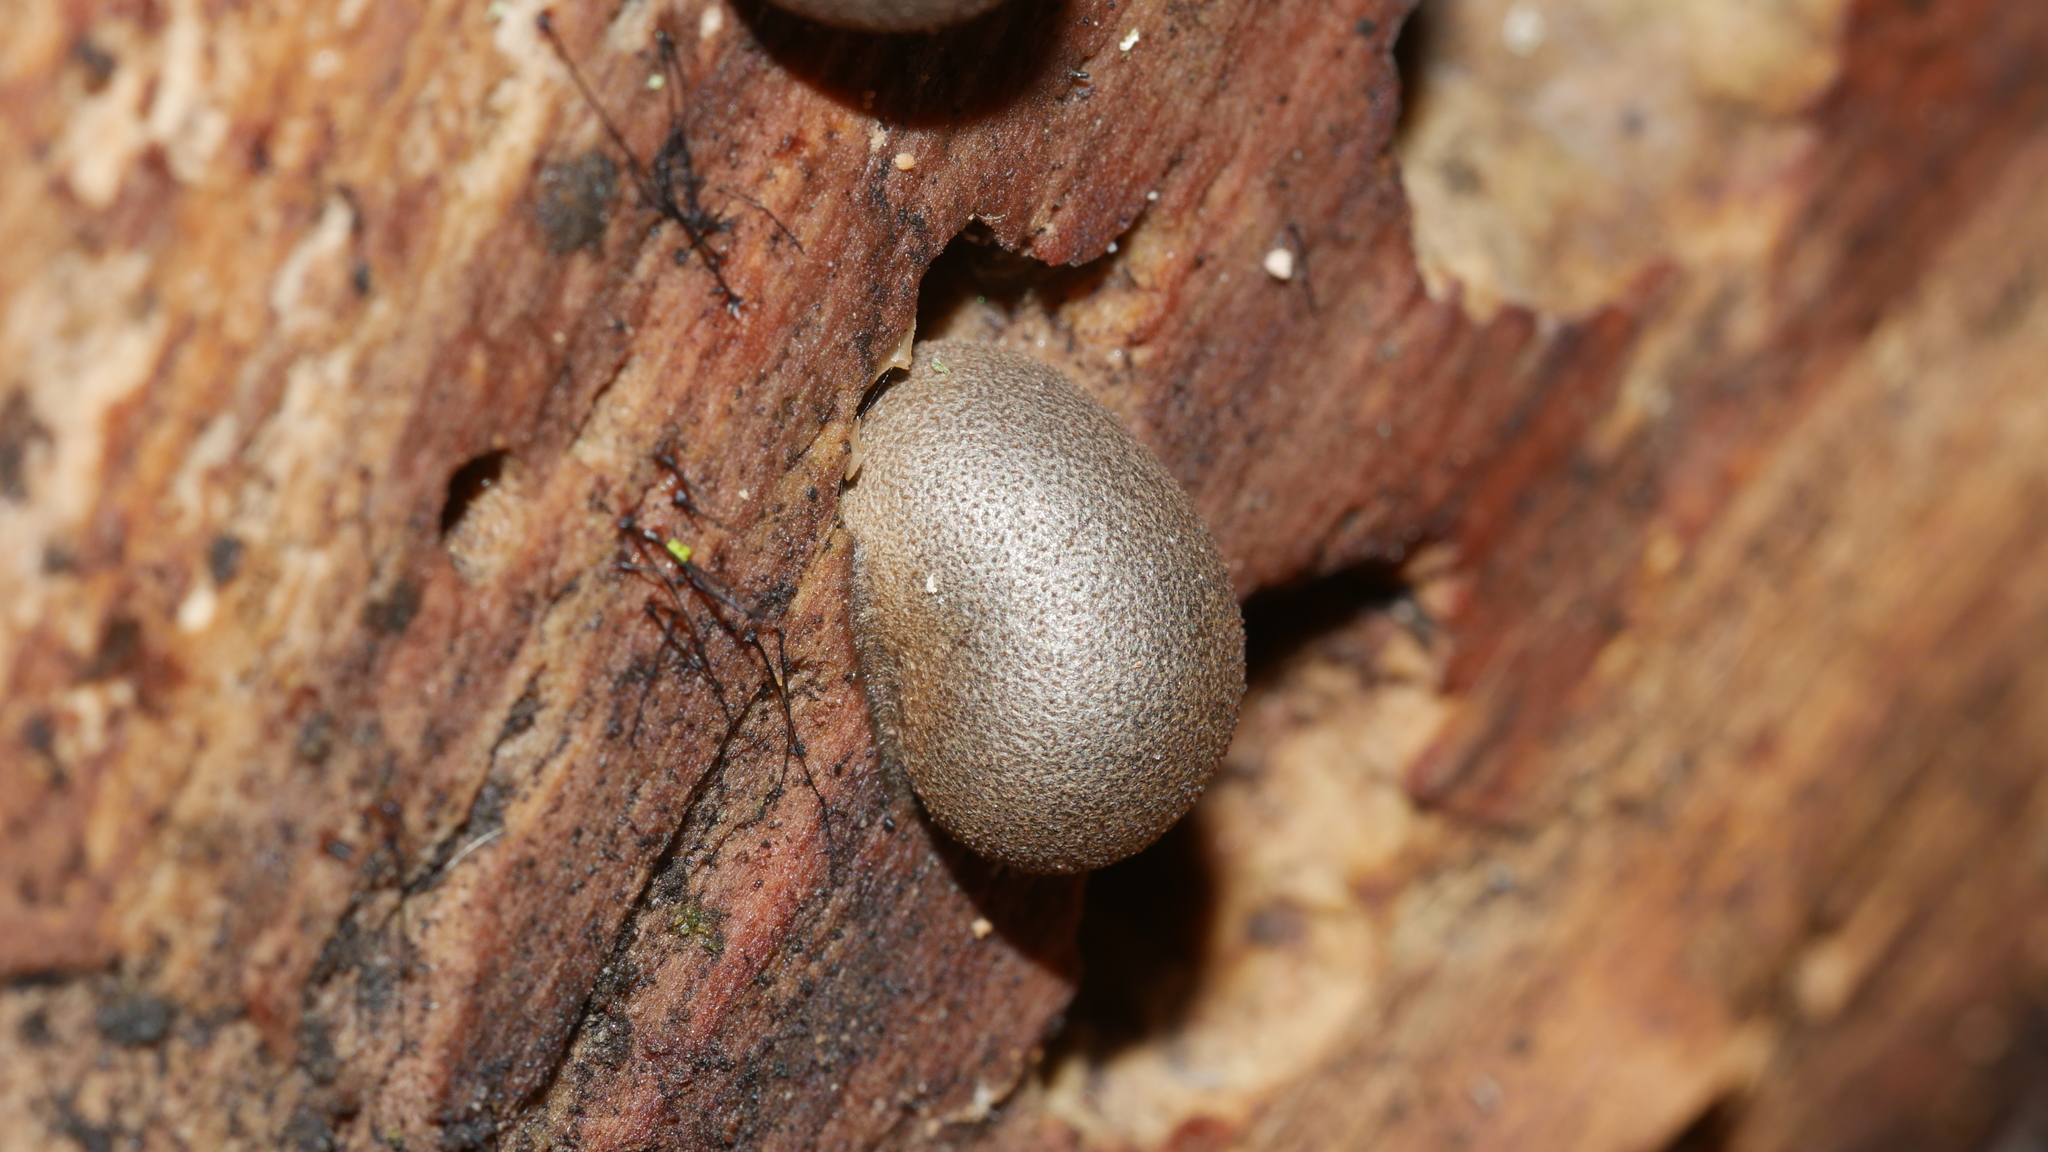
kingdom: Protozoa
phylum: Mycetozoa
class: Myxomycetes
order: Cribrariales
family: Tubiferaceae
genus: Lycogala
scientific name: Lycogala epidendrum
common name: Wolf's milk
